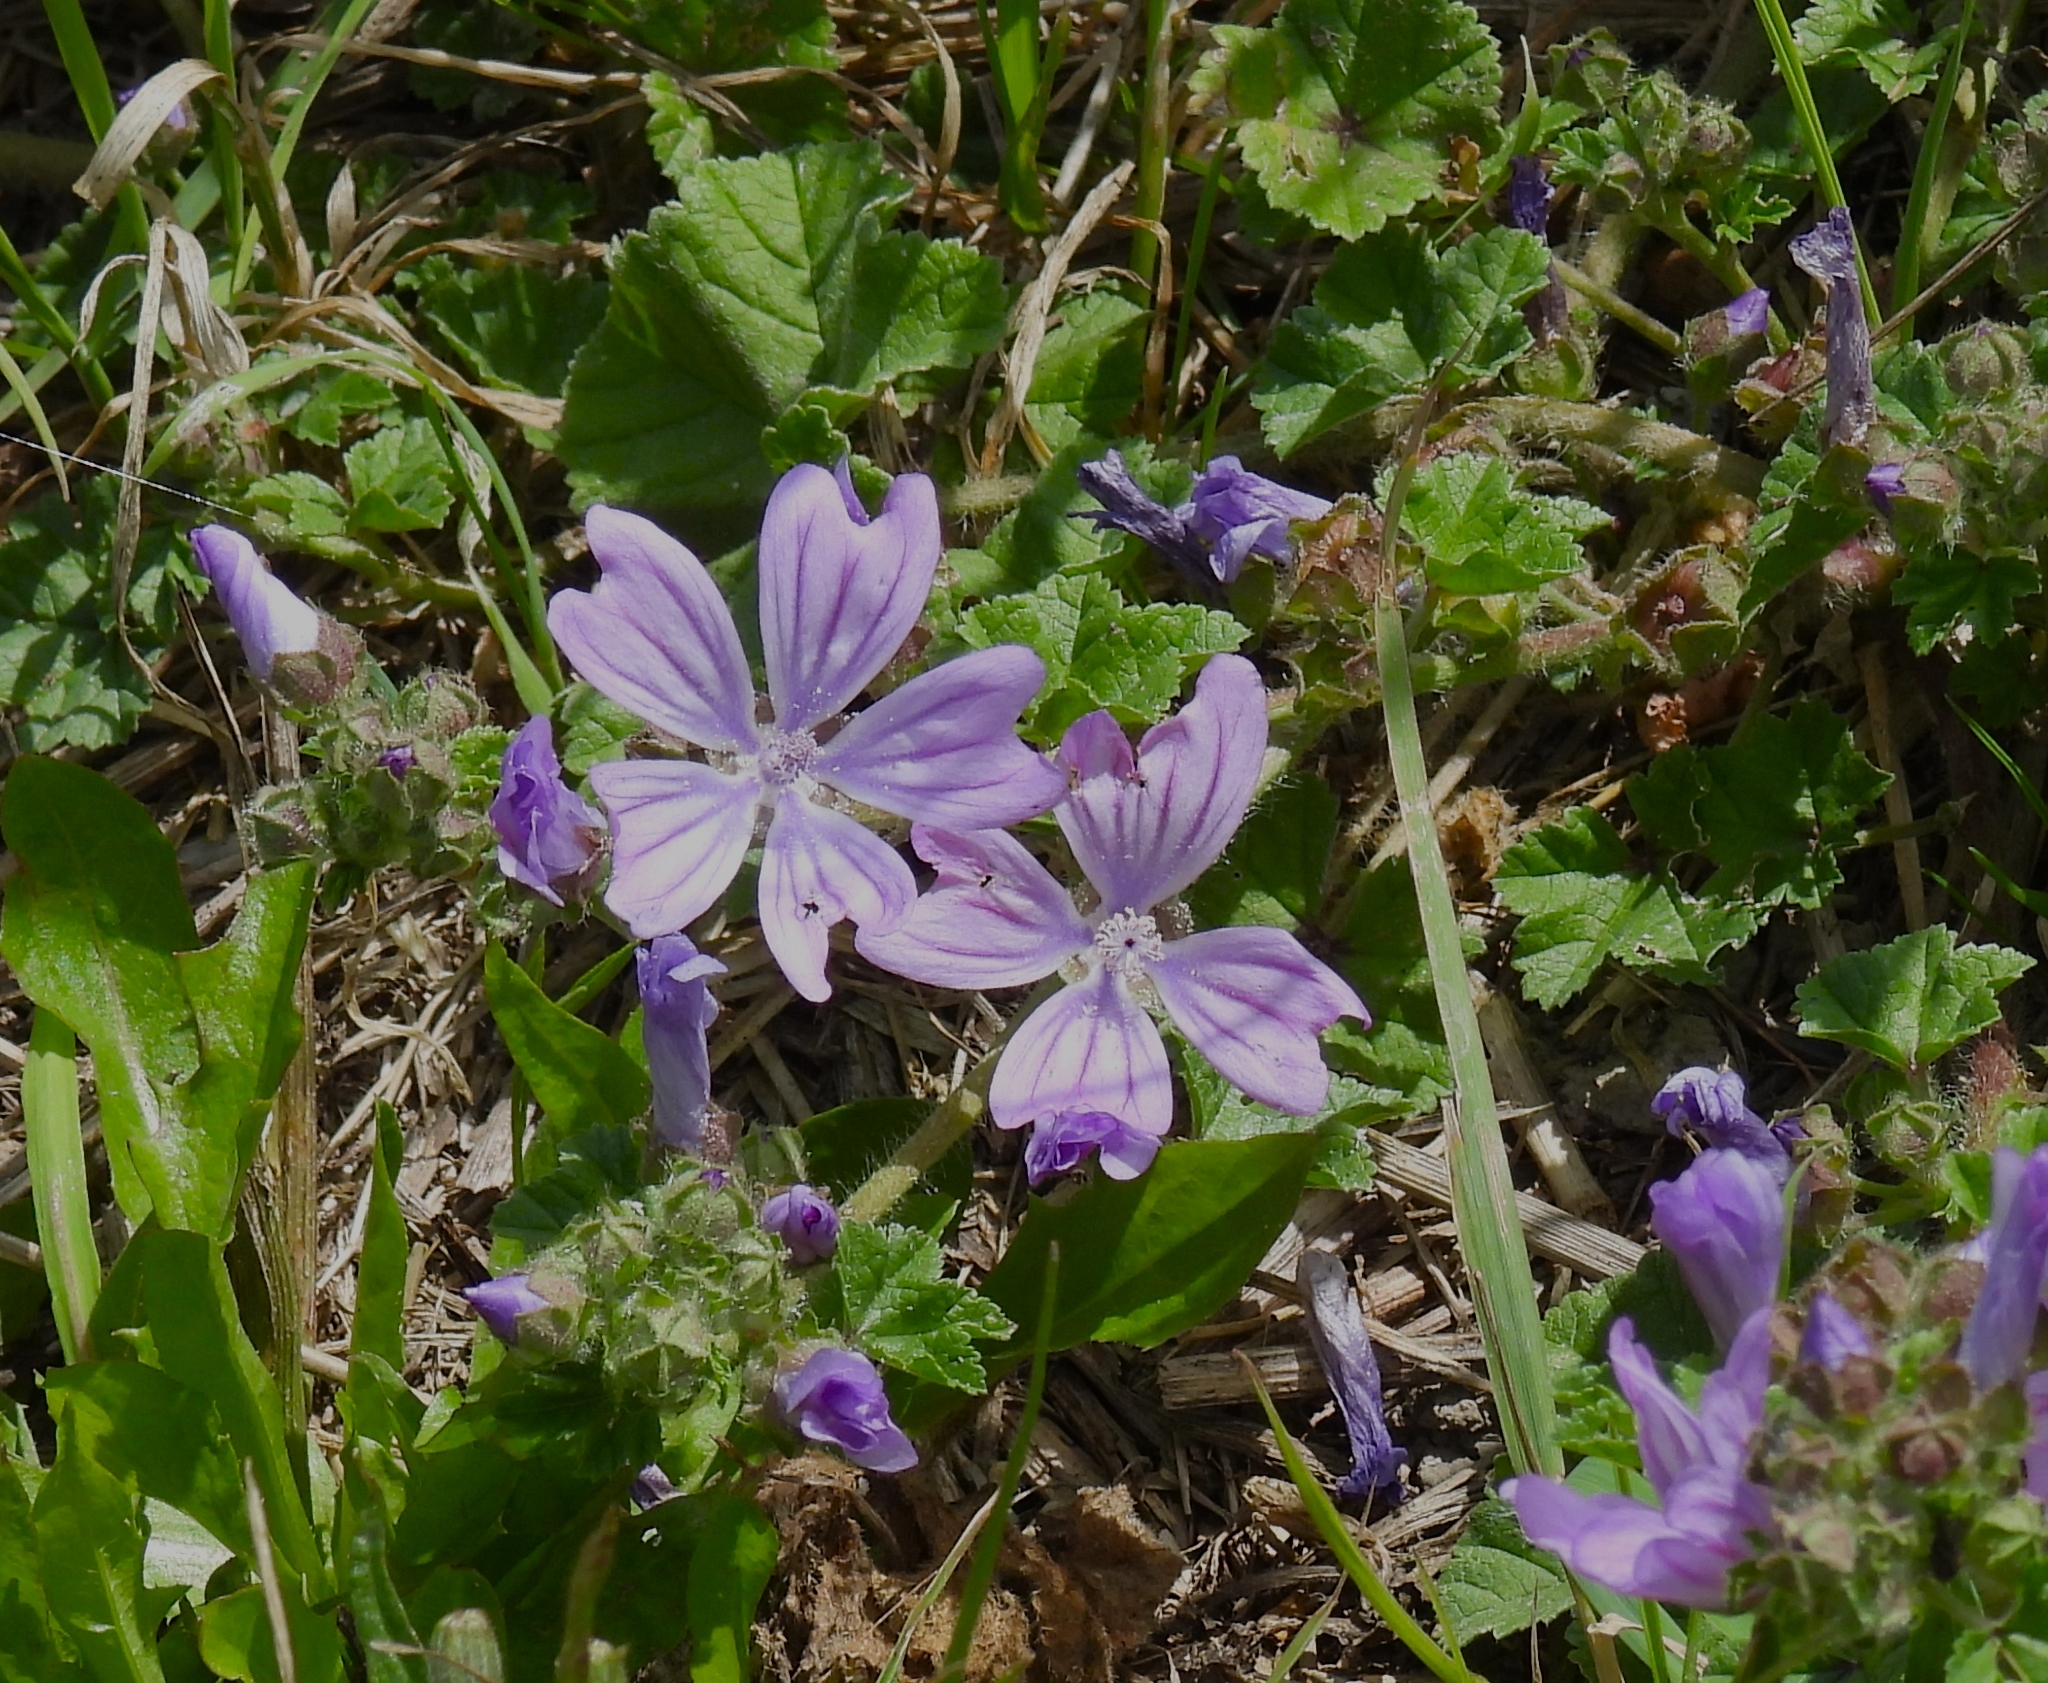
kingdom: Plantae
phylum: Tracheophyta
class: Magnoliopsida
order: Malvales
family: Malvaceae
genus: Malva
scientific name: Malva sylvestris
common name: Common mallow
